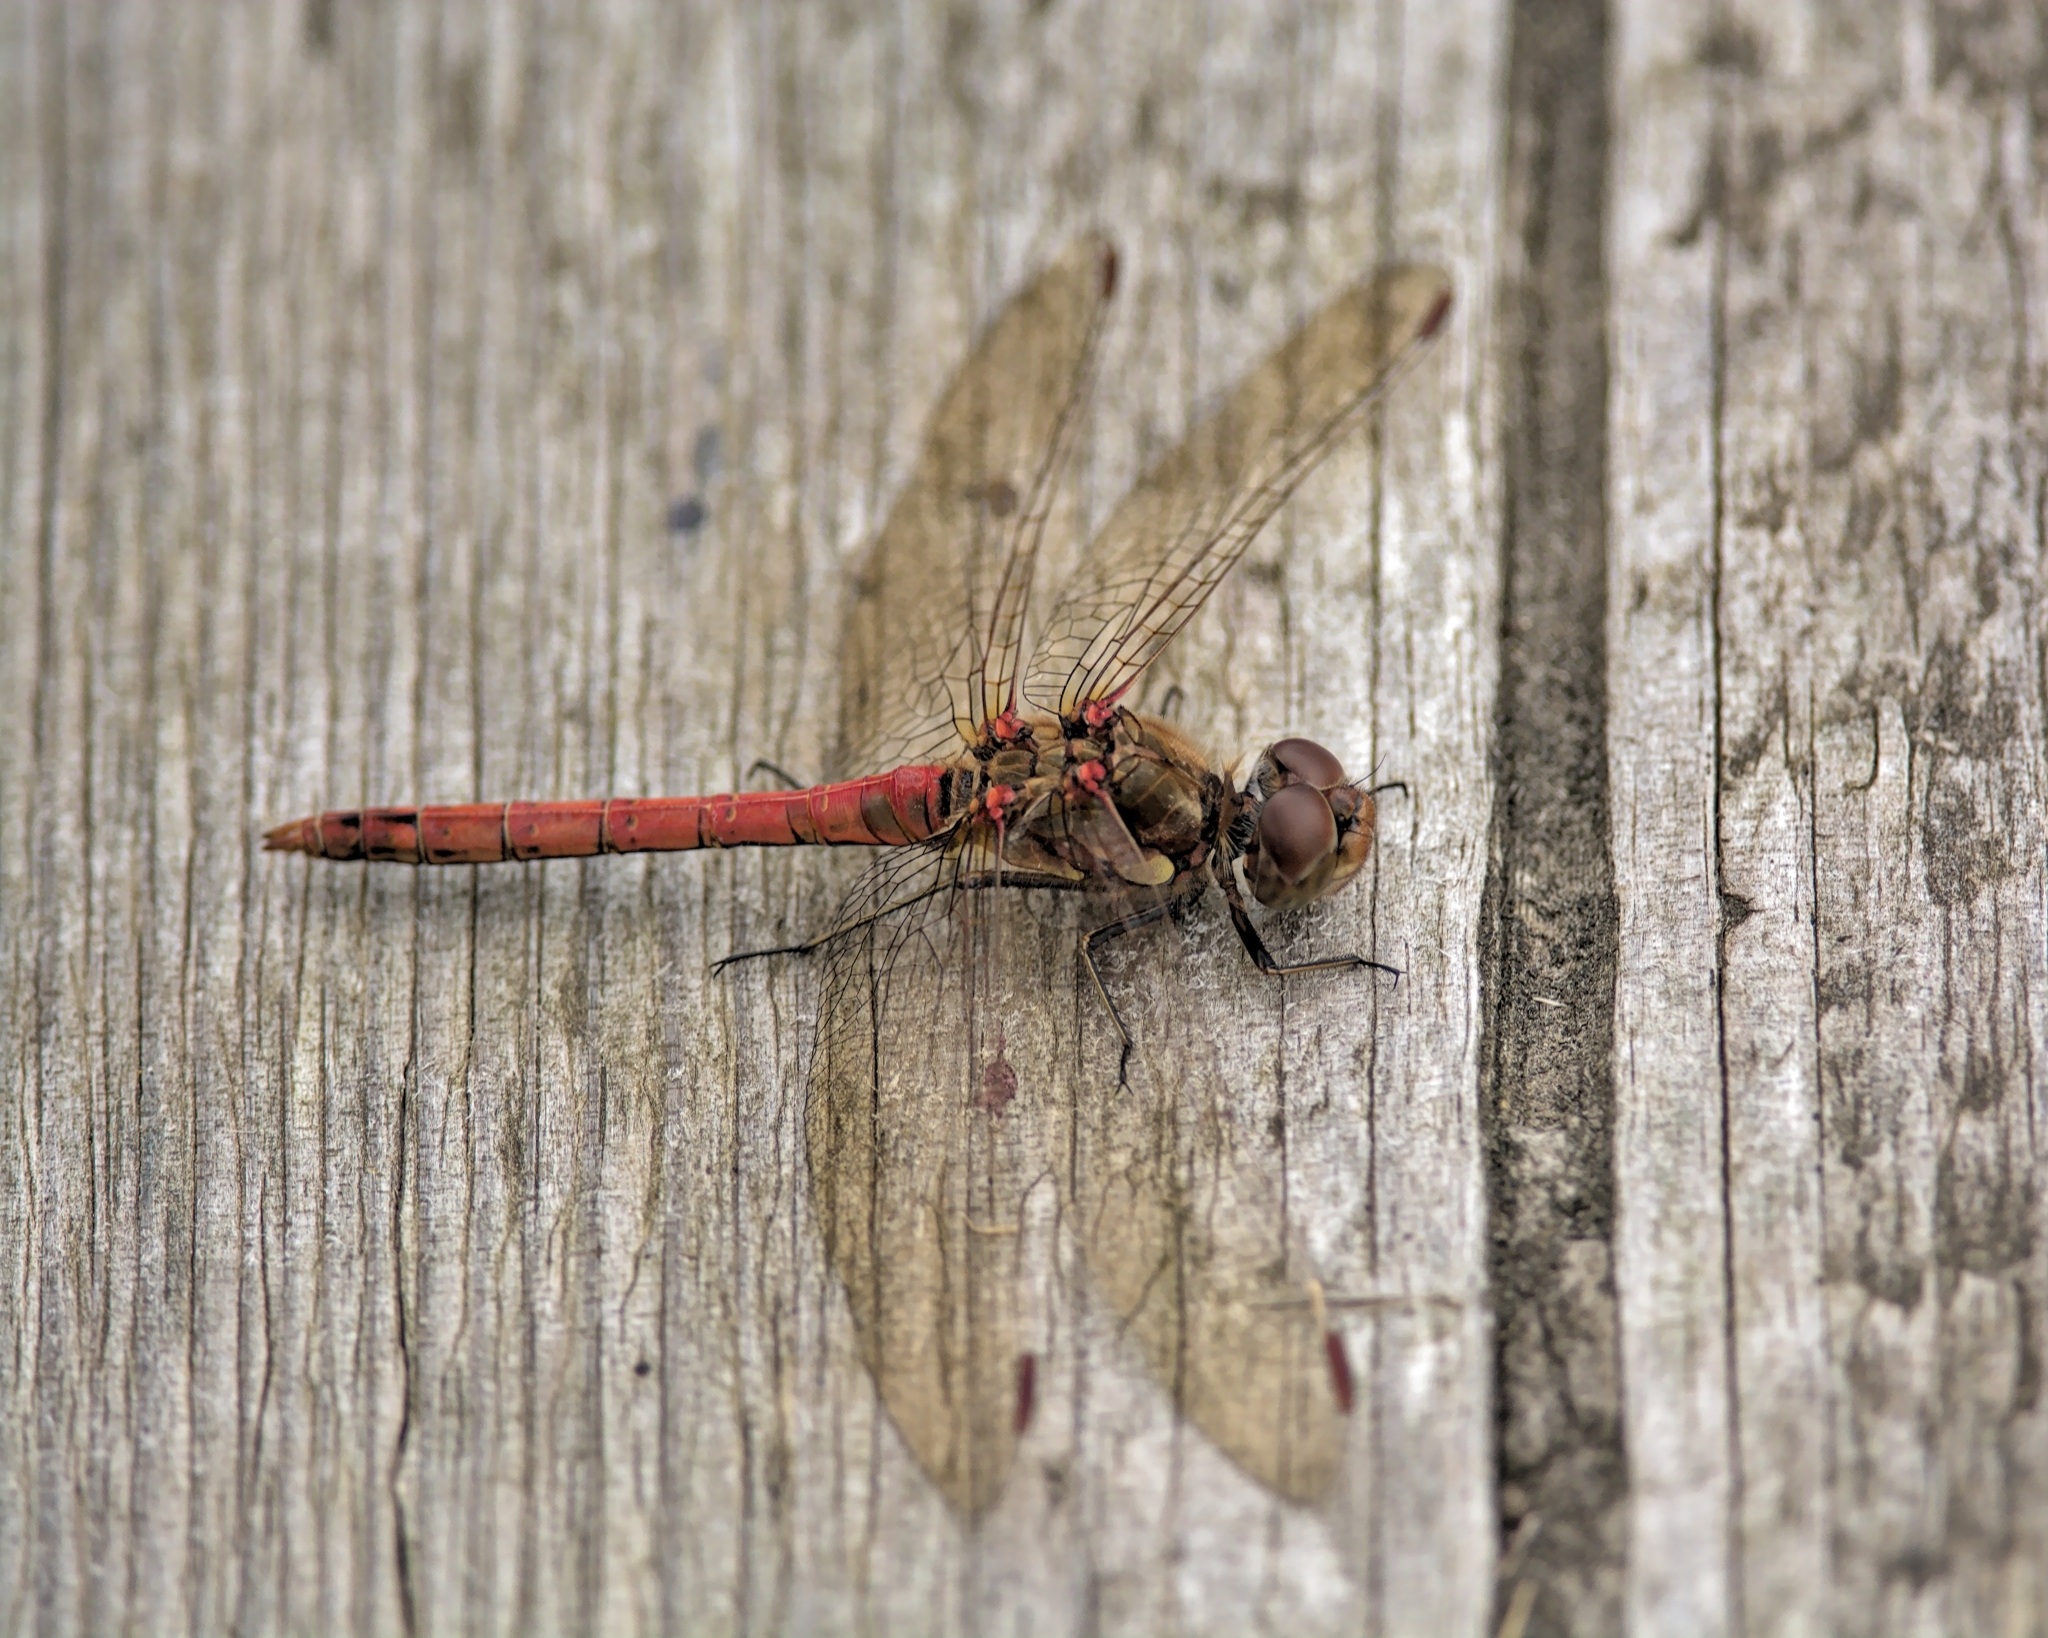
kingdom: Animalia
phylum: Arthropoda
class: Insecta
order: Odonata
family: Libellulidae
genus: Sympetrum
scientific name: Sympetrum striolatum
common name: Common darter
